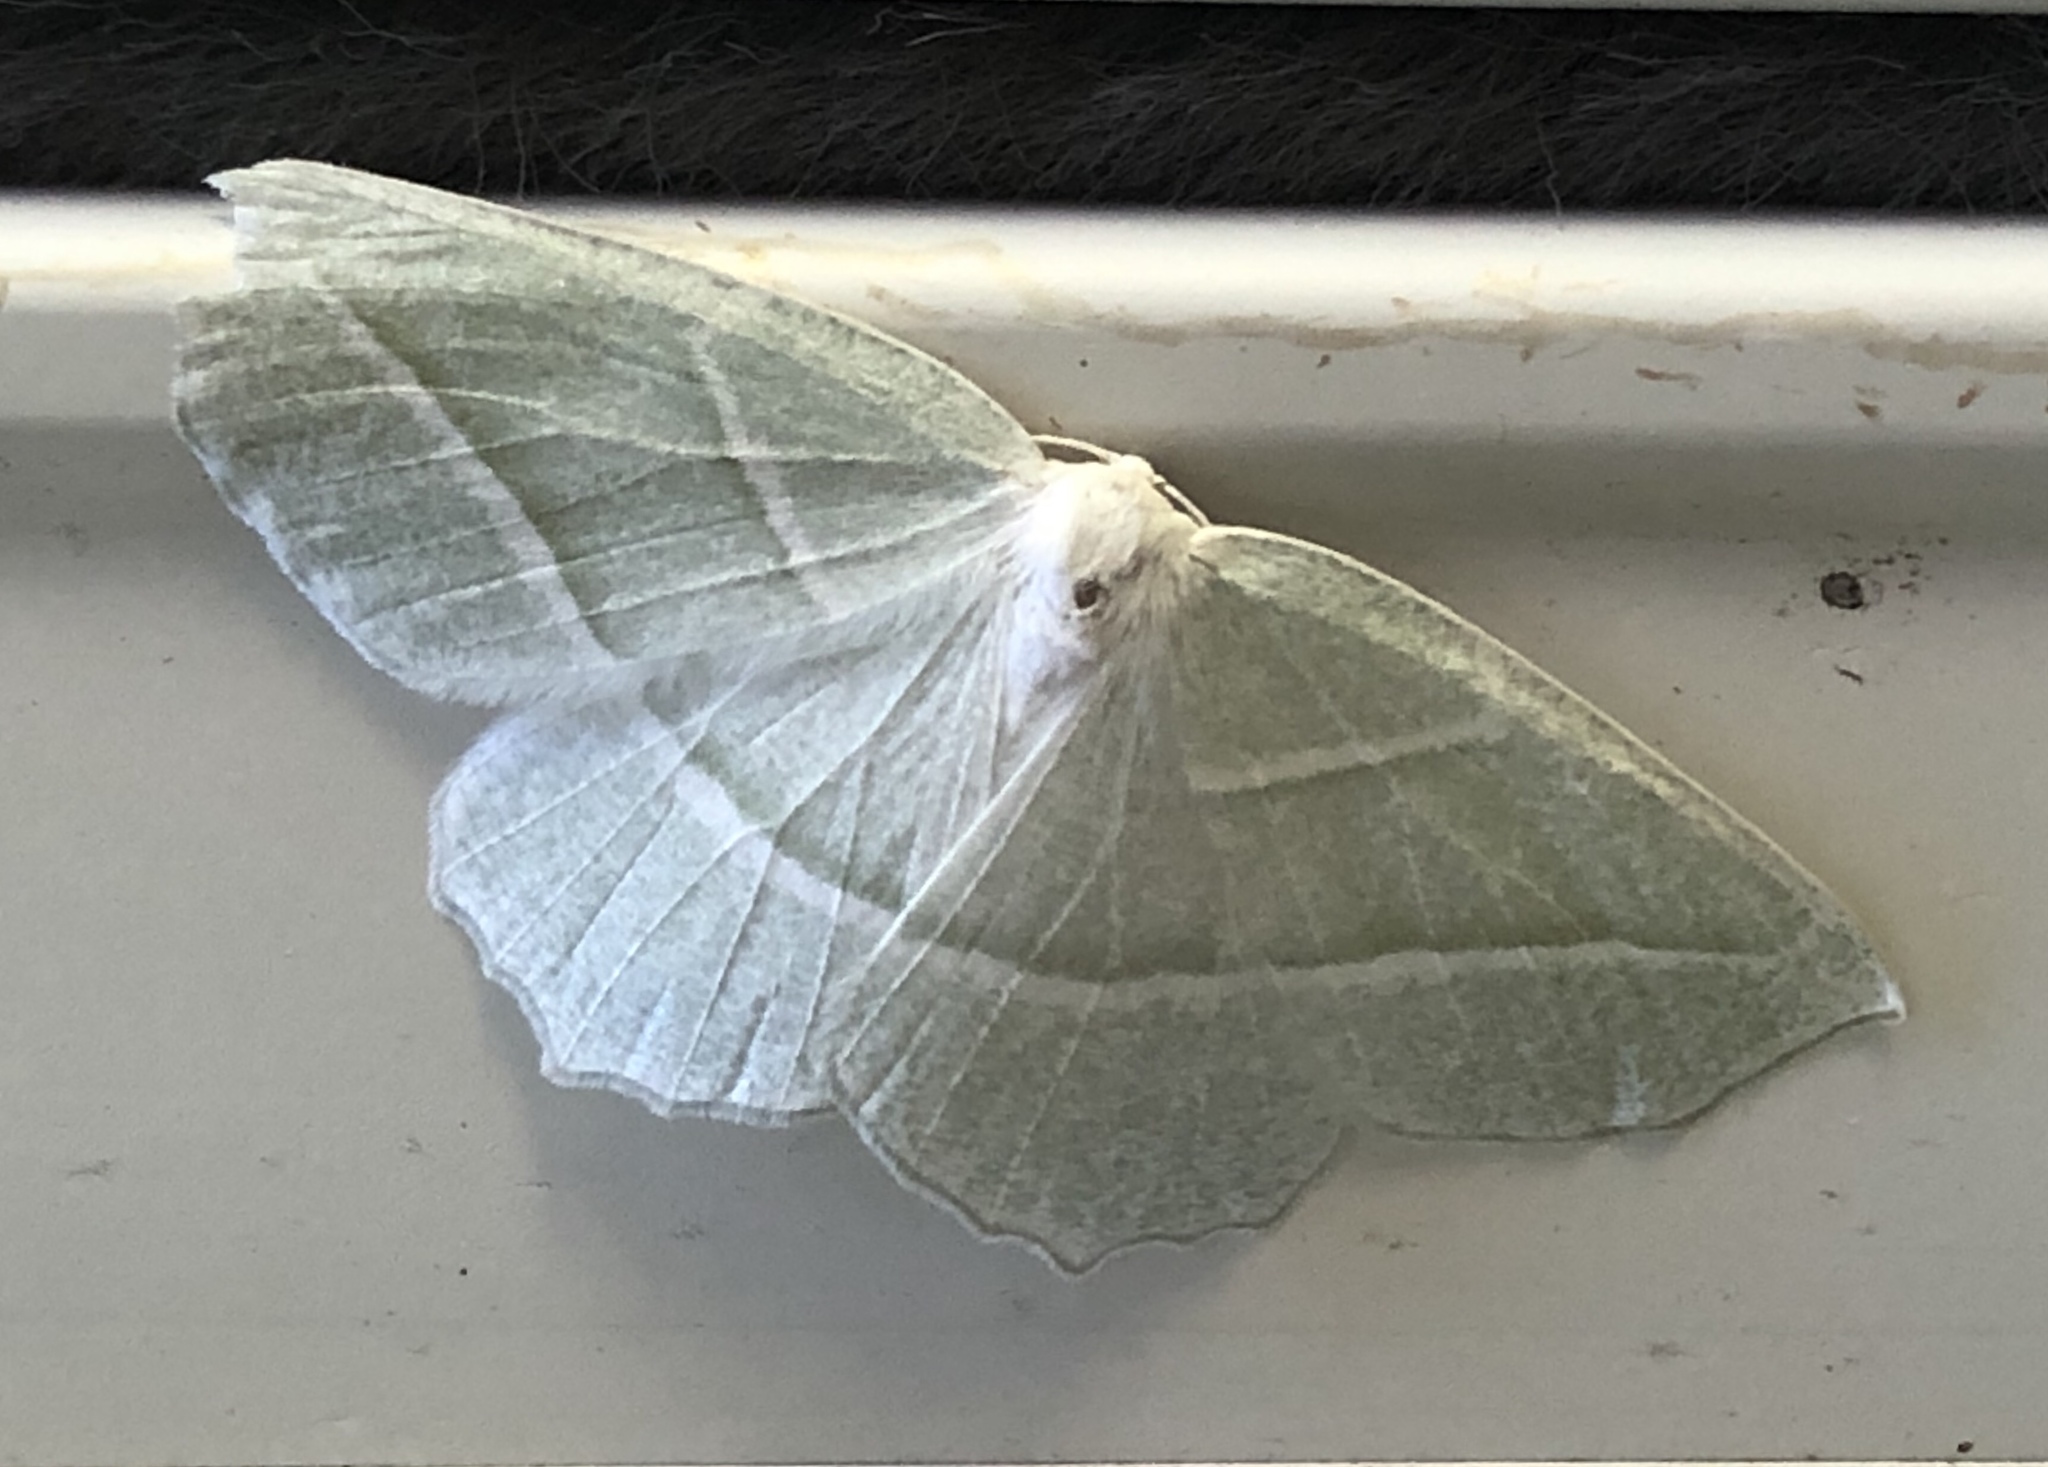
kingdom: Animalia
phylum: Arthropoda
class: Insecta
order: Lepidoptera
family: Geometridae
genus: Campaea
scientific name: Campaea perlata
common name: Fringed looper
